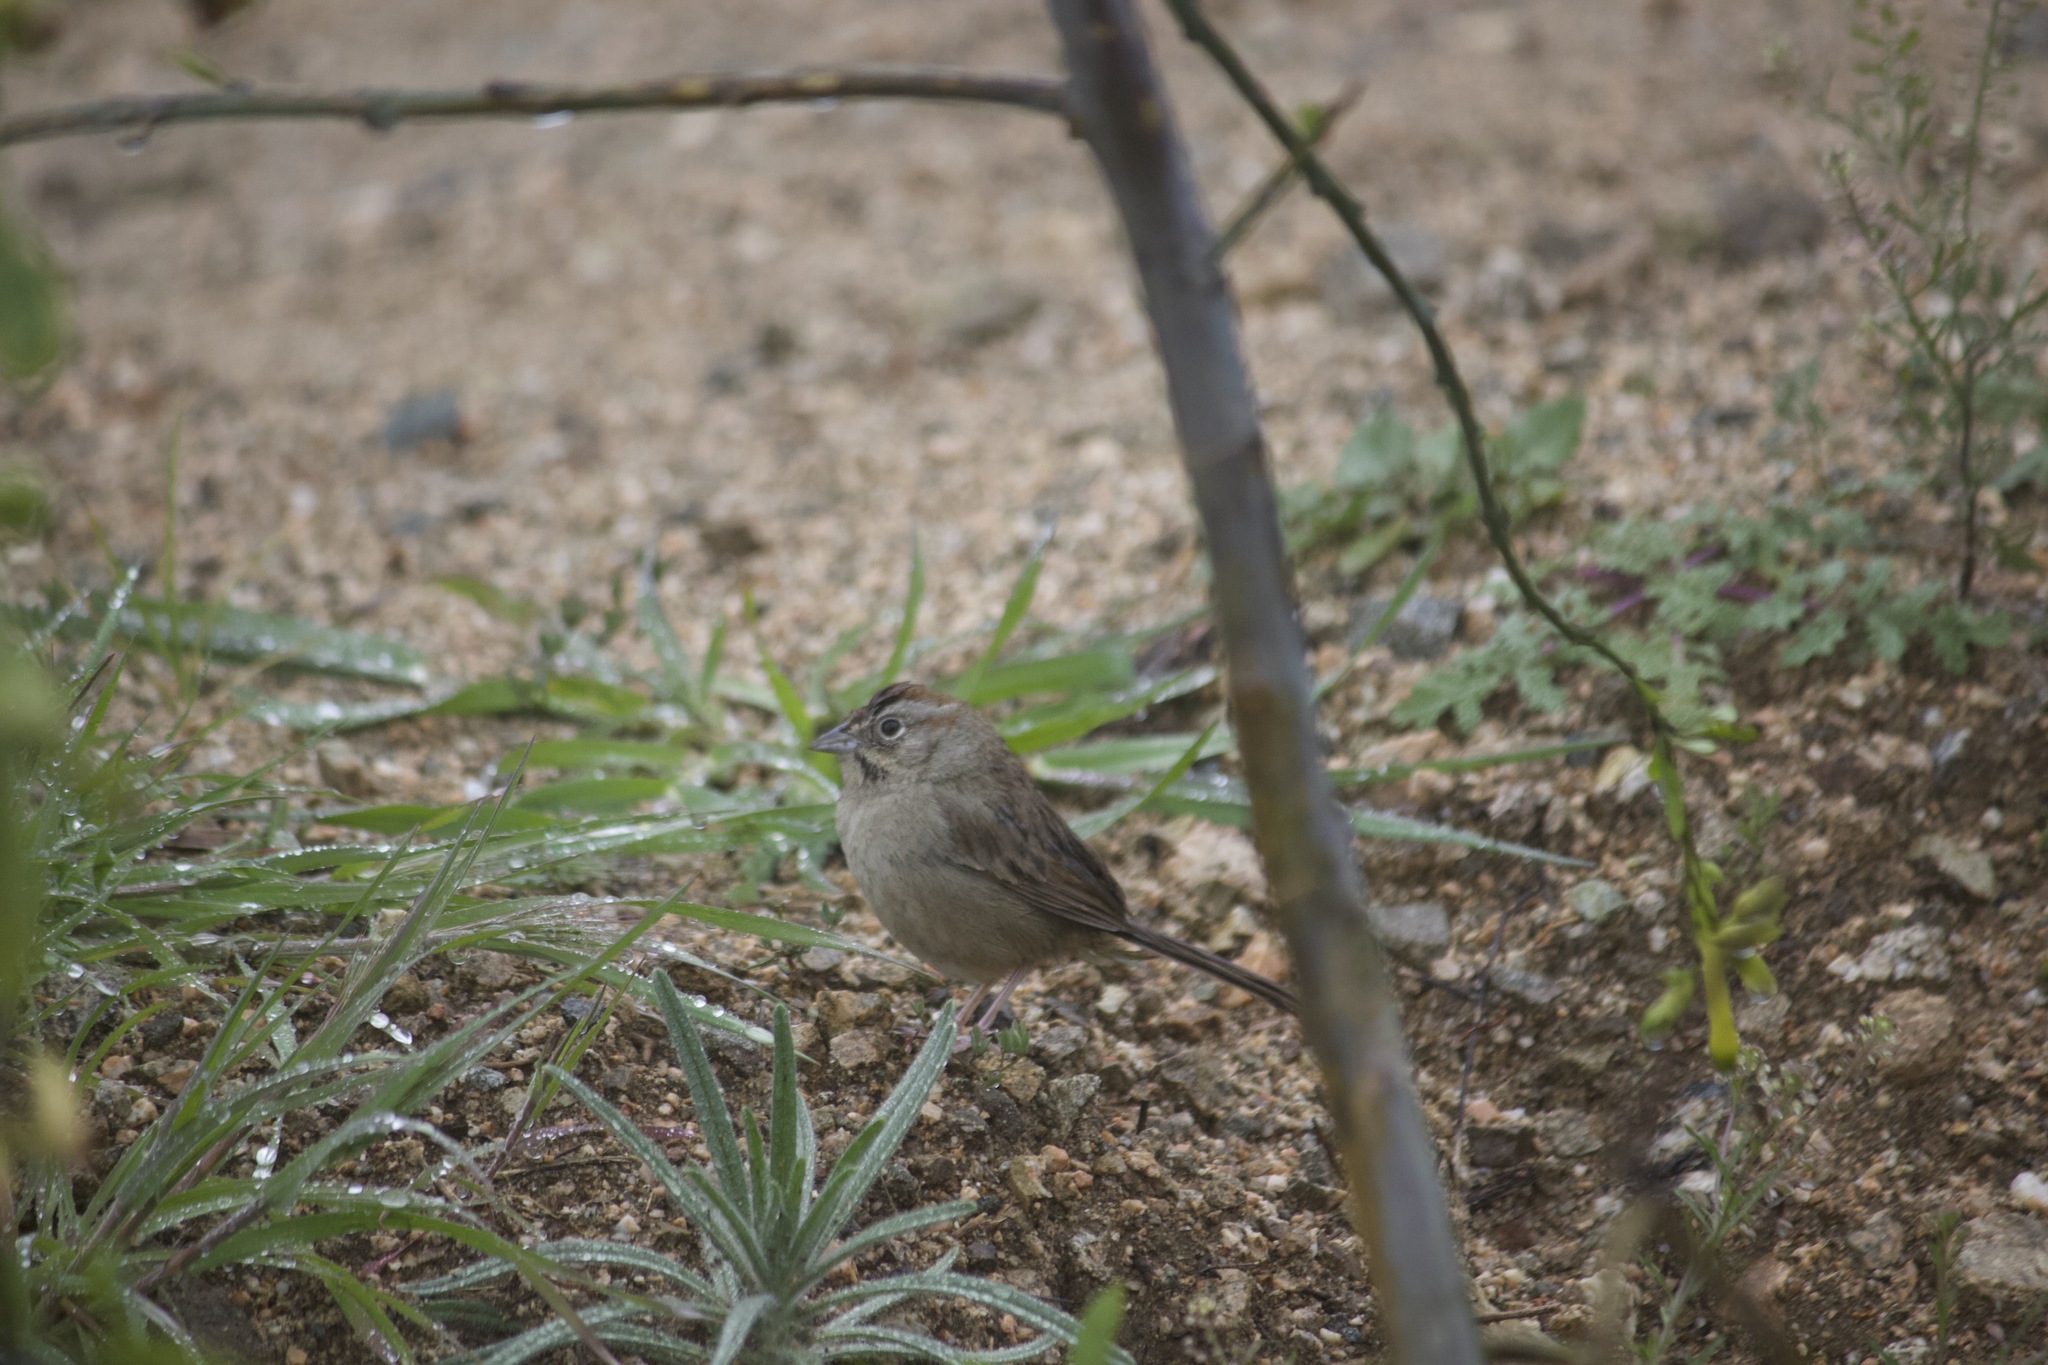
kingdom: Animalia
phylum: Chordata
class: Aves
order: Passeriformes
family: Passerellidae
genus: Aimophila
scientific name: Aimophila ruficeps
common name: Rufous-crowned sparrow
